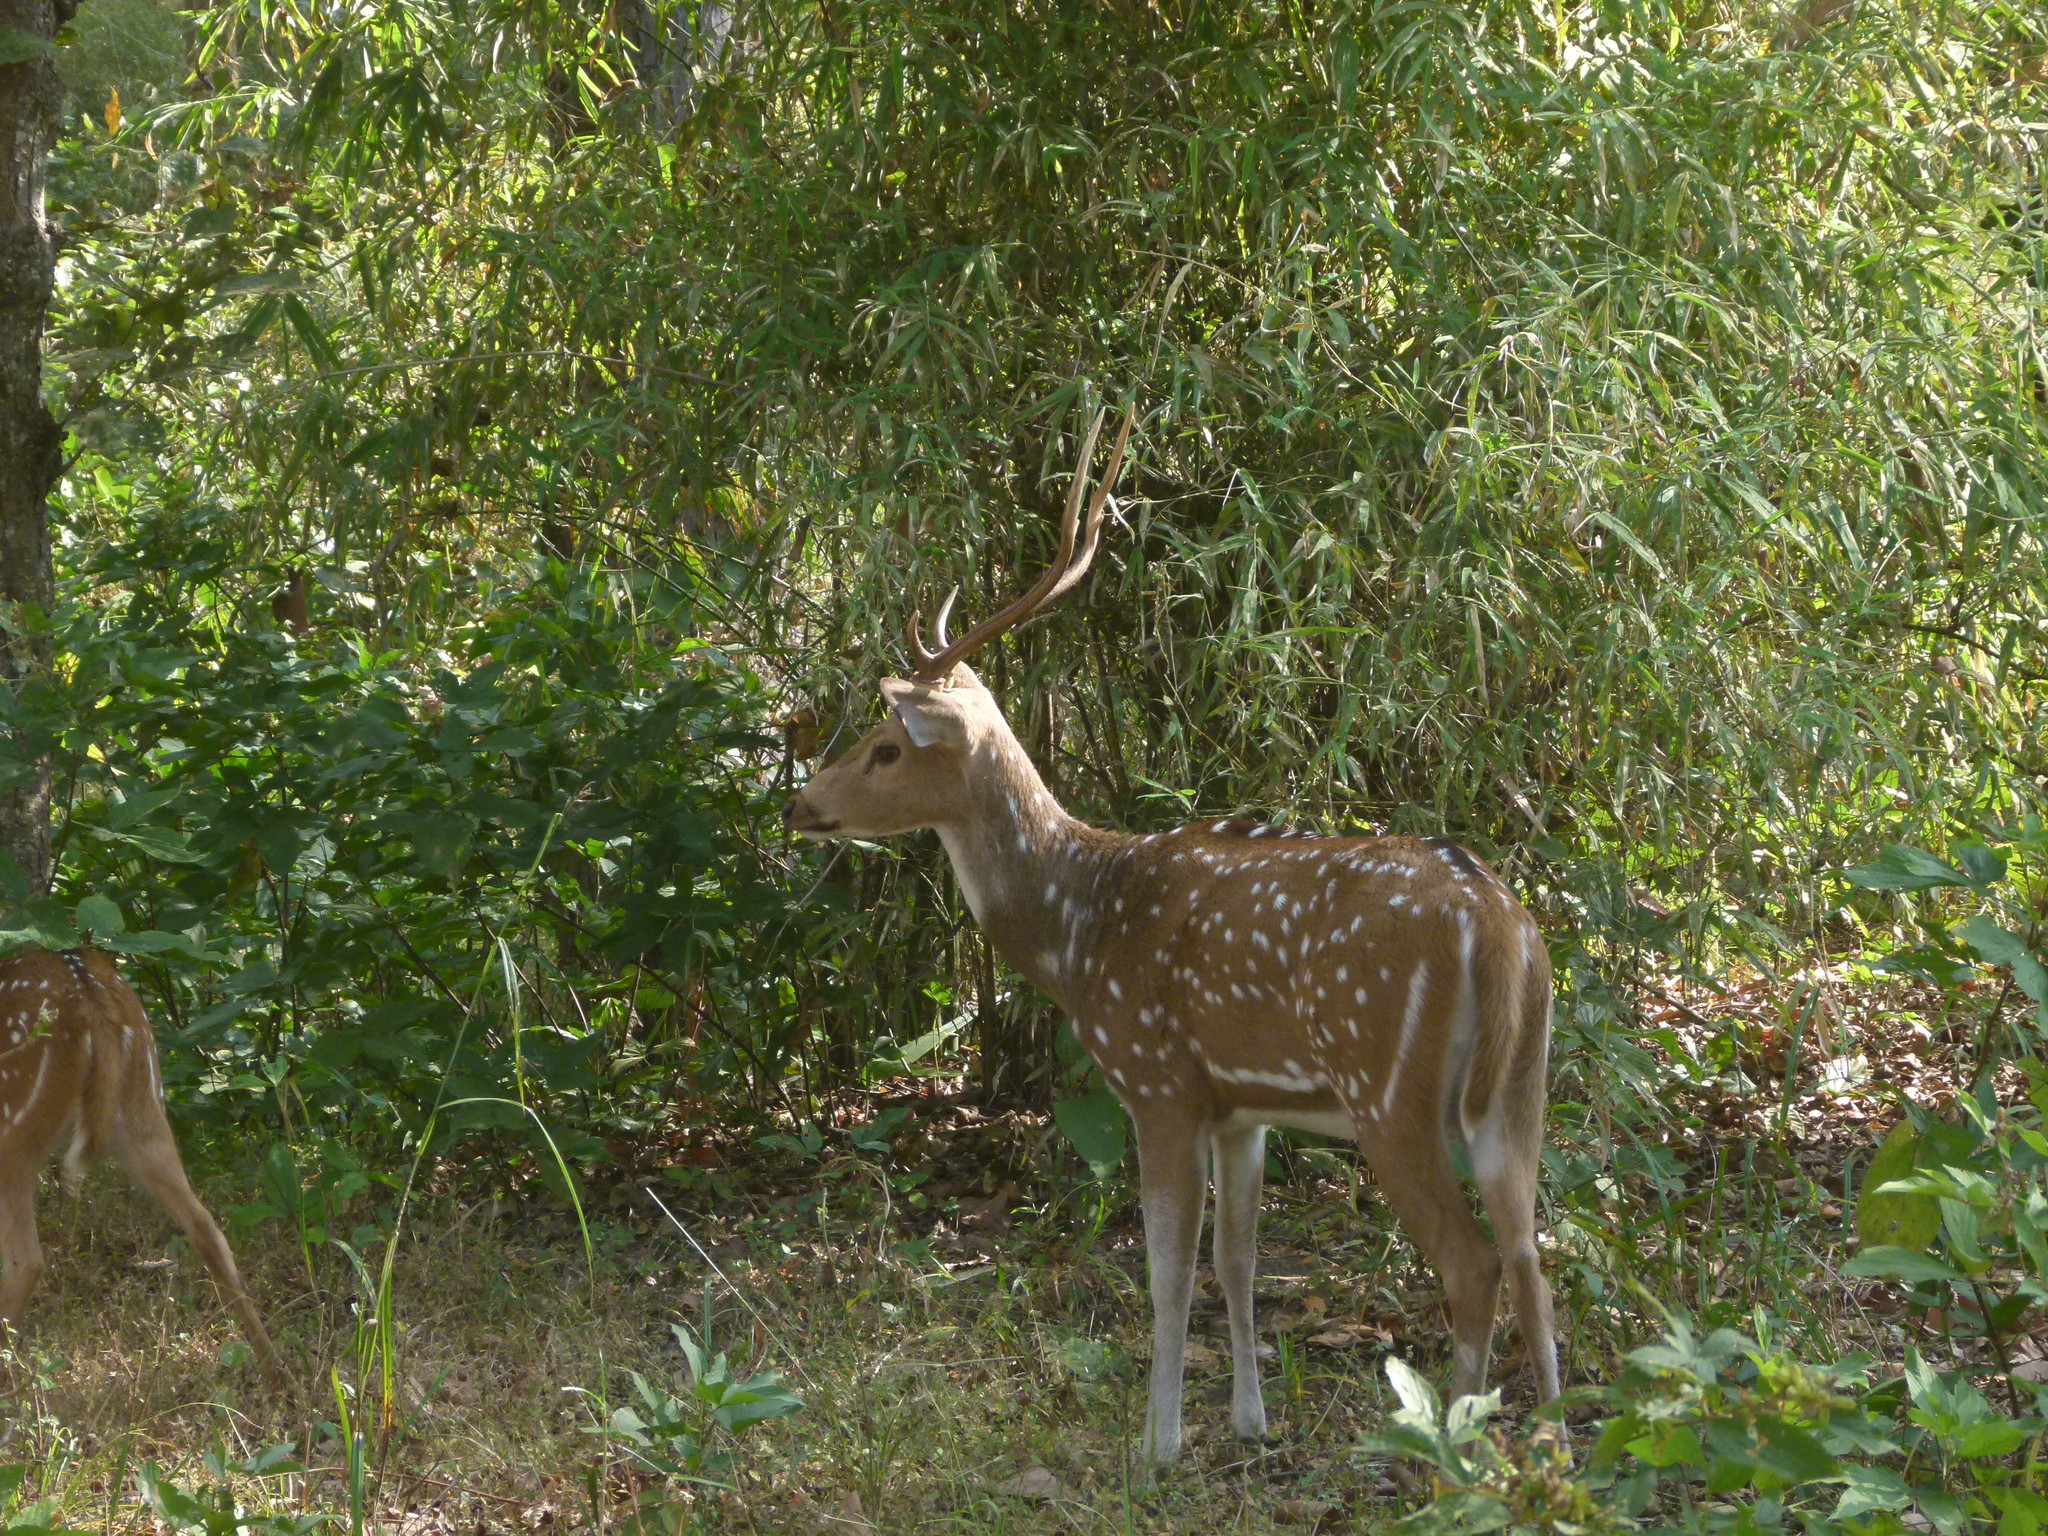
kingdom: Animalia
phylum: Chordata
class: Mammalia
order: Artiodactyla
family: Cervidae
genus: Axis
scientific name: Axis axis
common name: Chital
